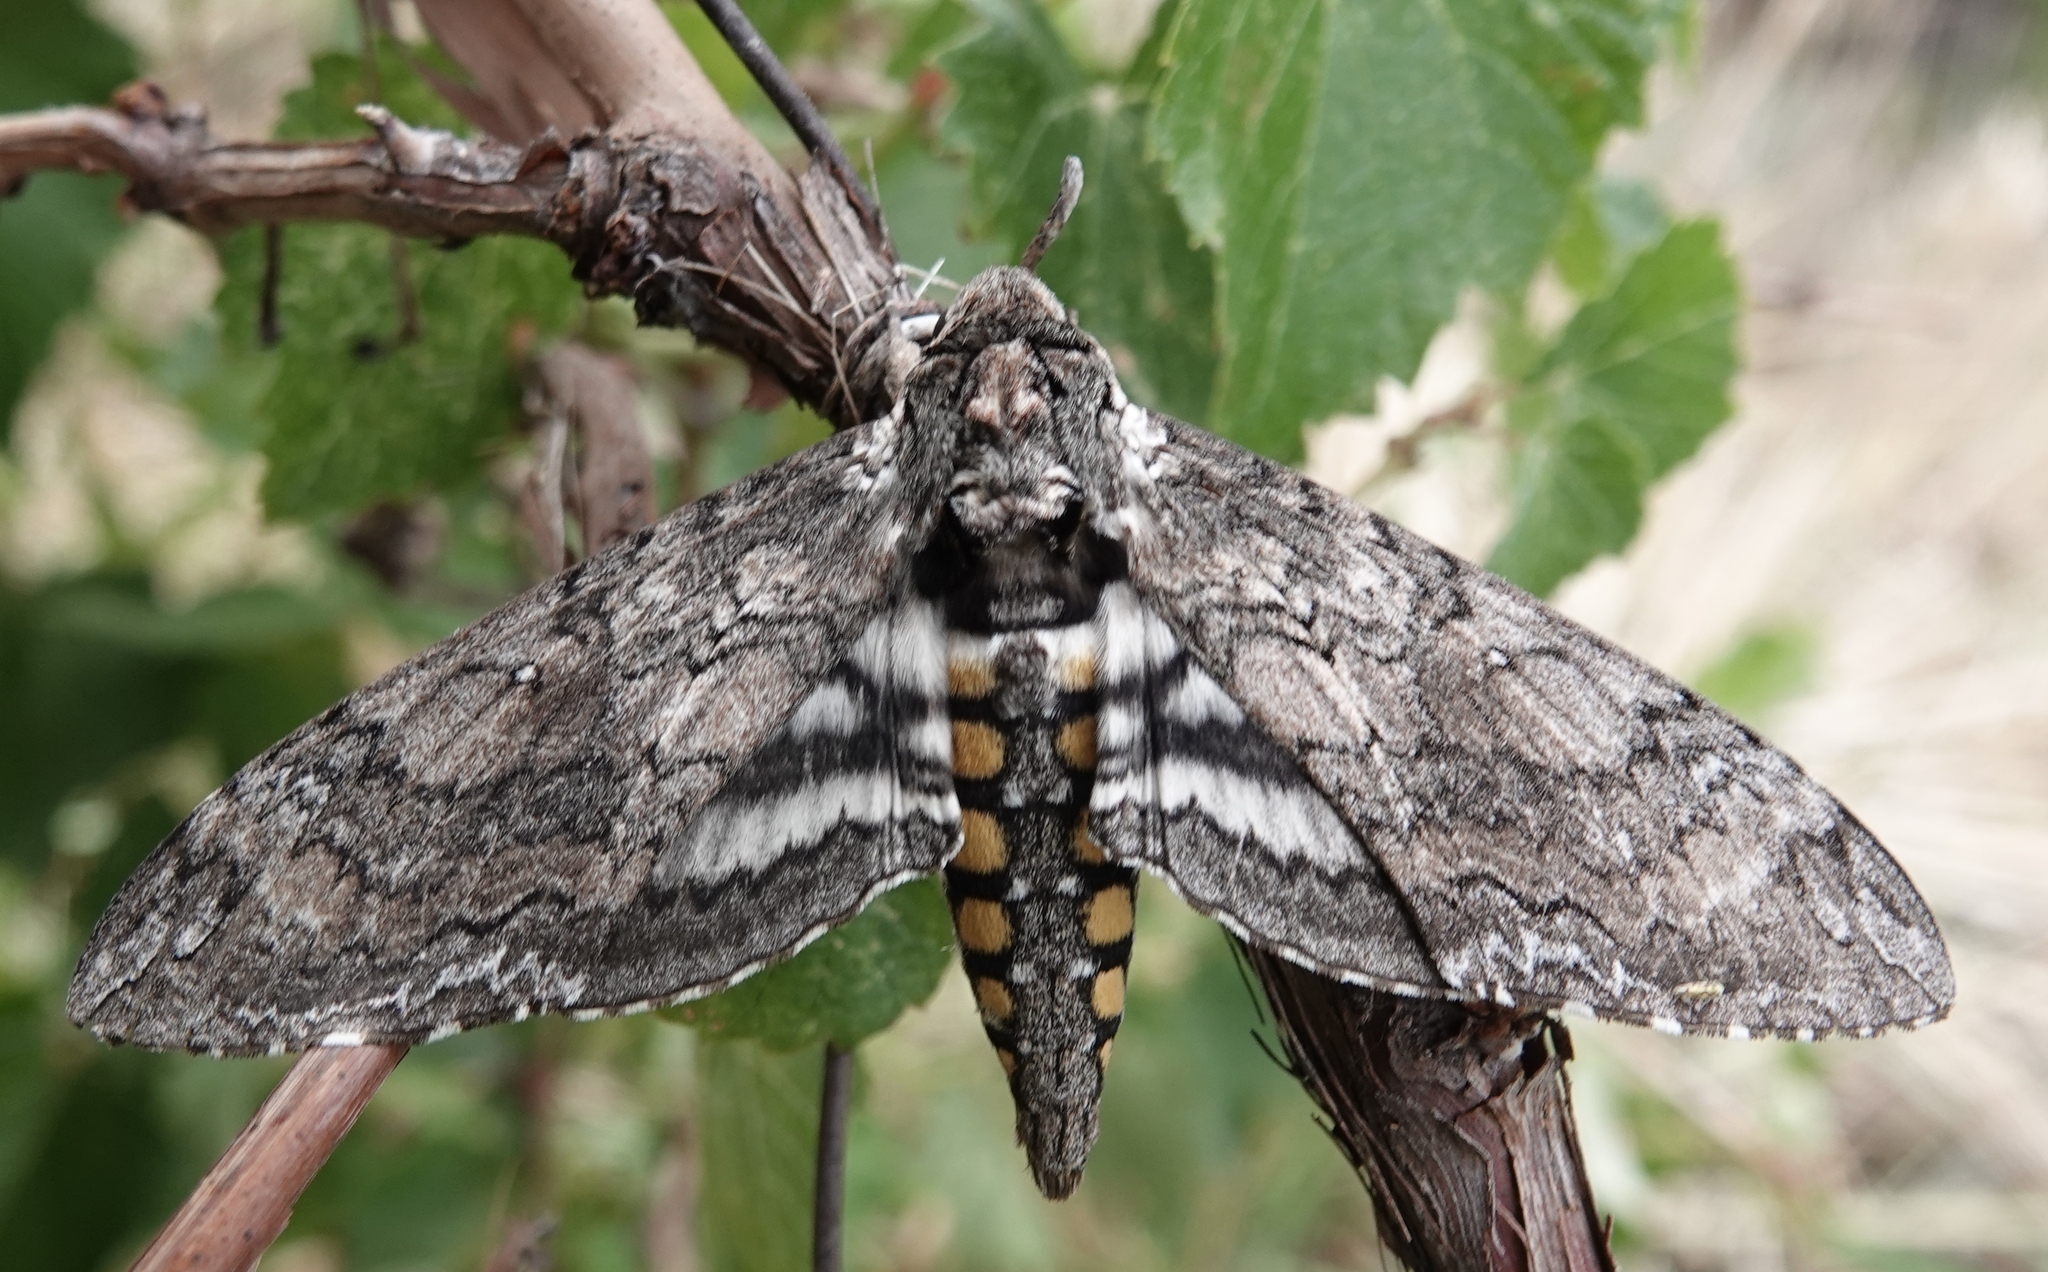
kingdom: Animalia
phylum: Arthropoda
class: Insecta
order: Lepidoptera
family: Sphingidae
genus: Manduca
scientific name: Manduca sexta
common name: Carolina sphinx
